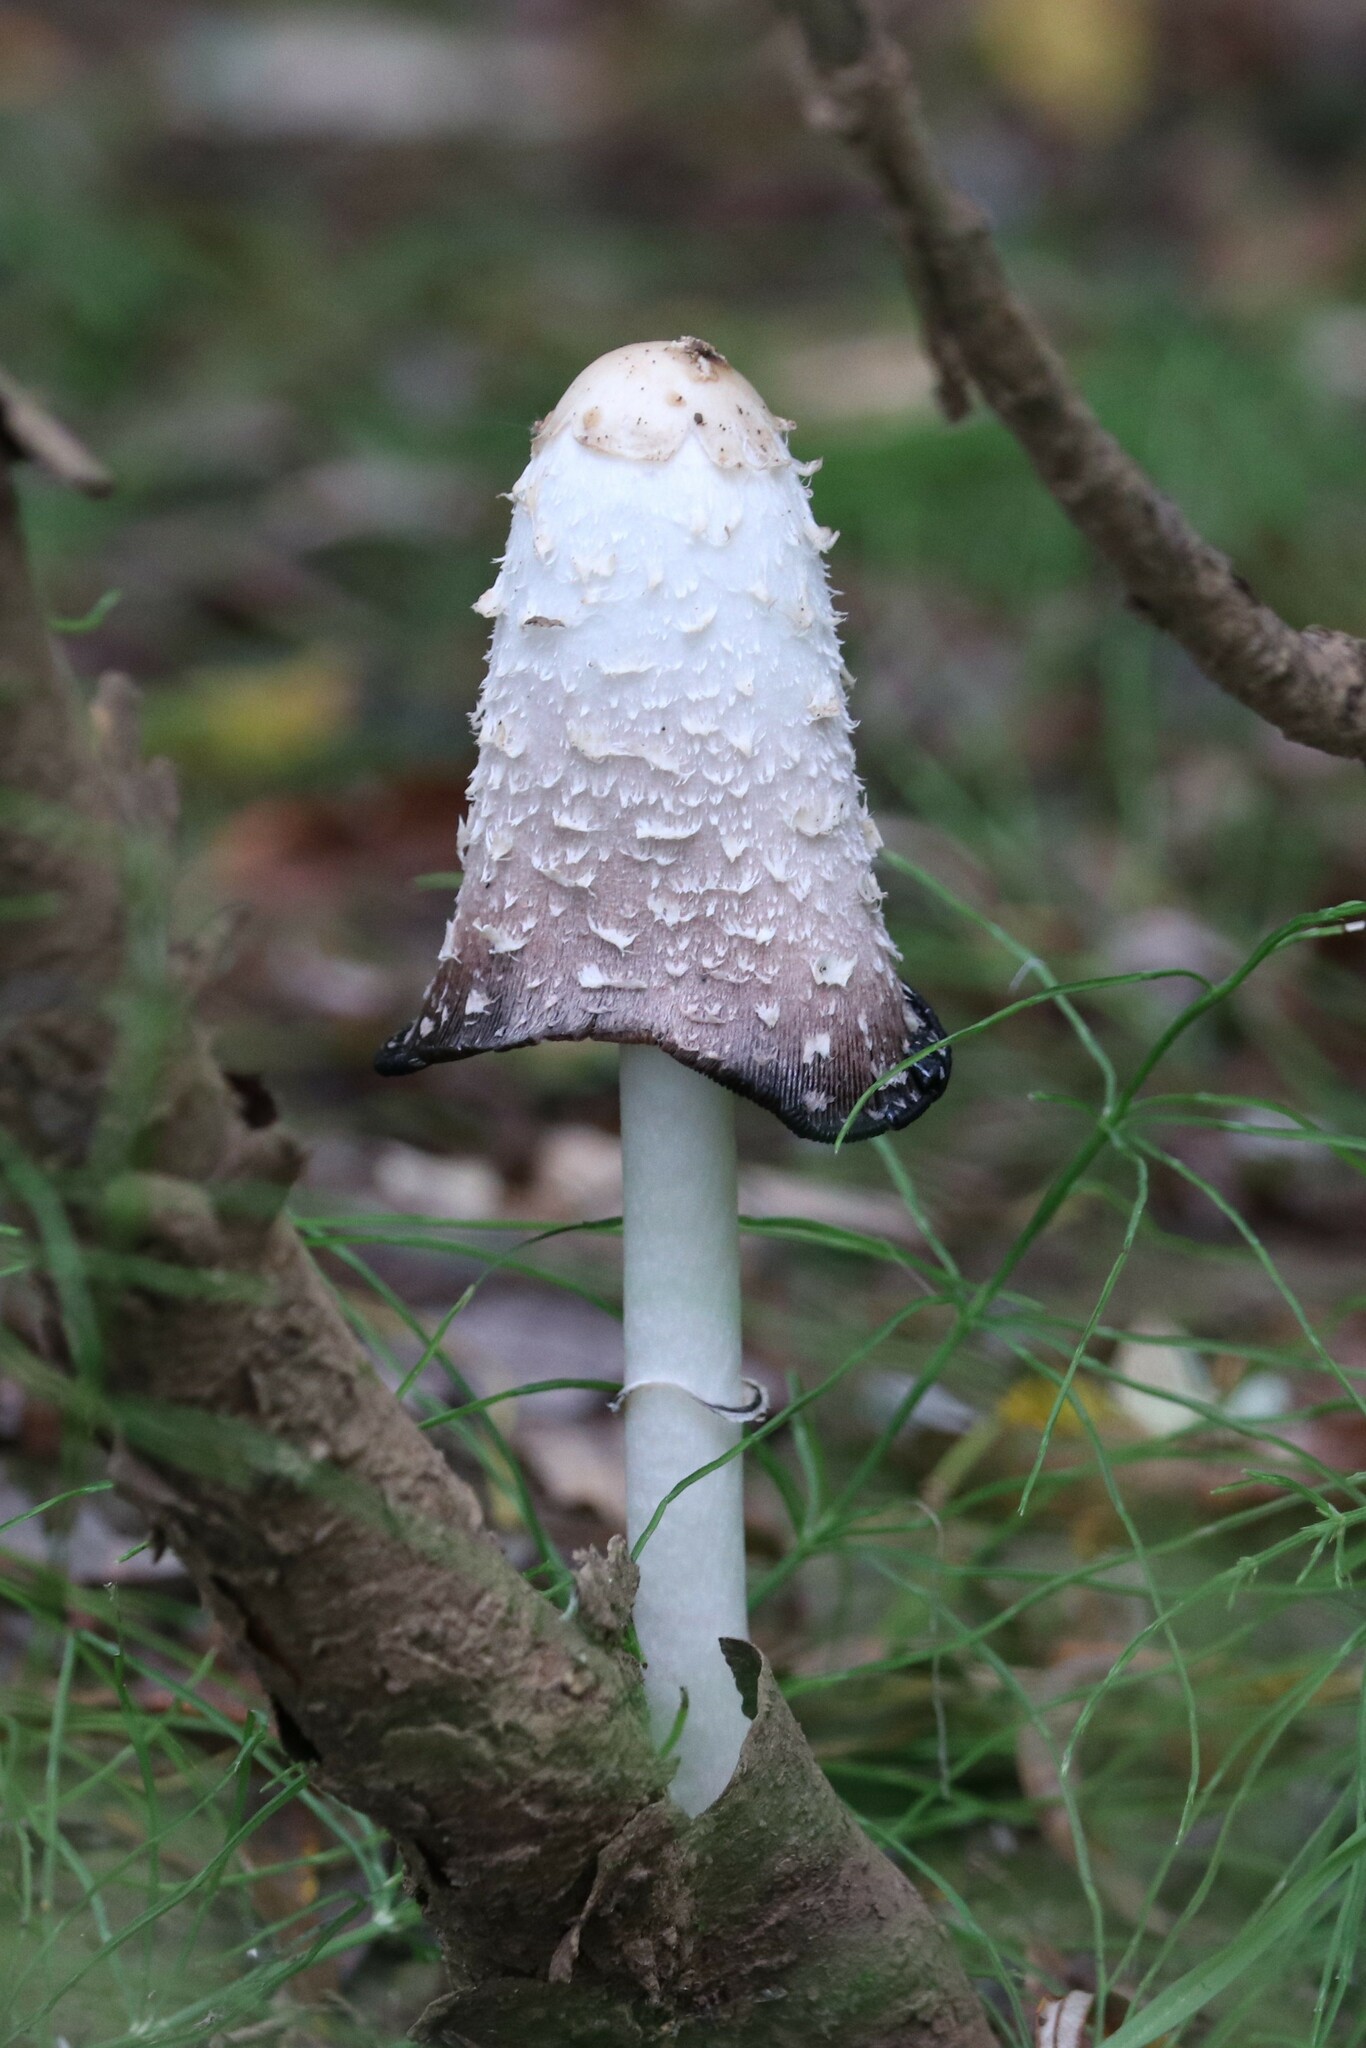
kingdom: Fungi
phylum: Basidiomycota
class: Agaricomycetes
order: Agaricales
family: Agaricaceae
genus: Coprinus
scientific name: Coprinus comatus
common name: Lawyer's wig
